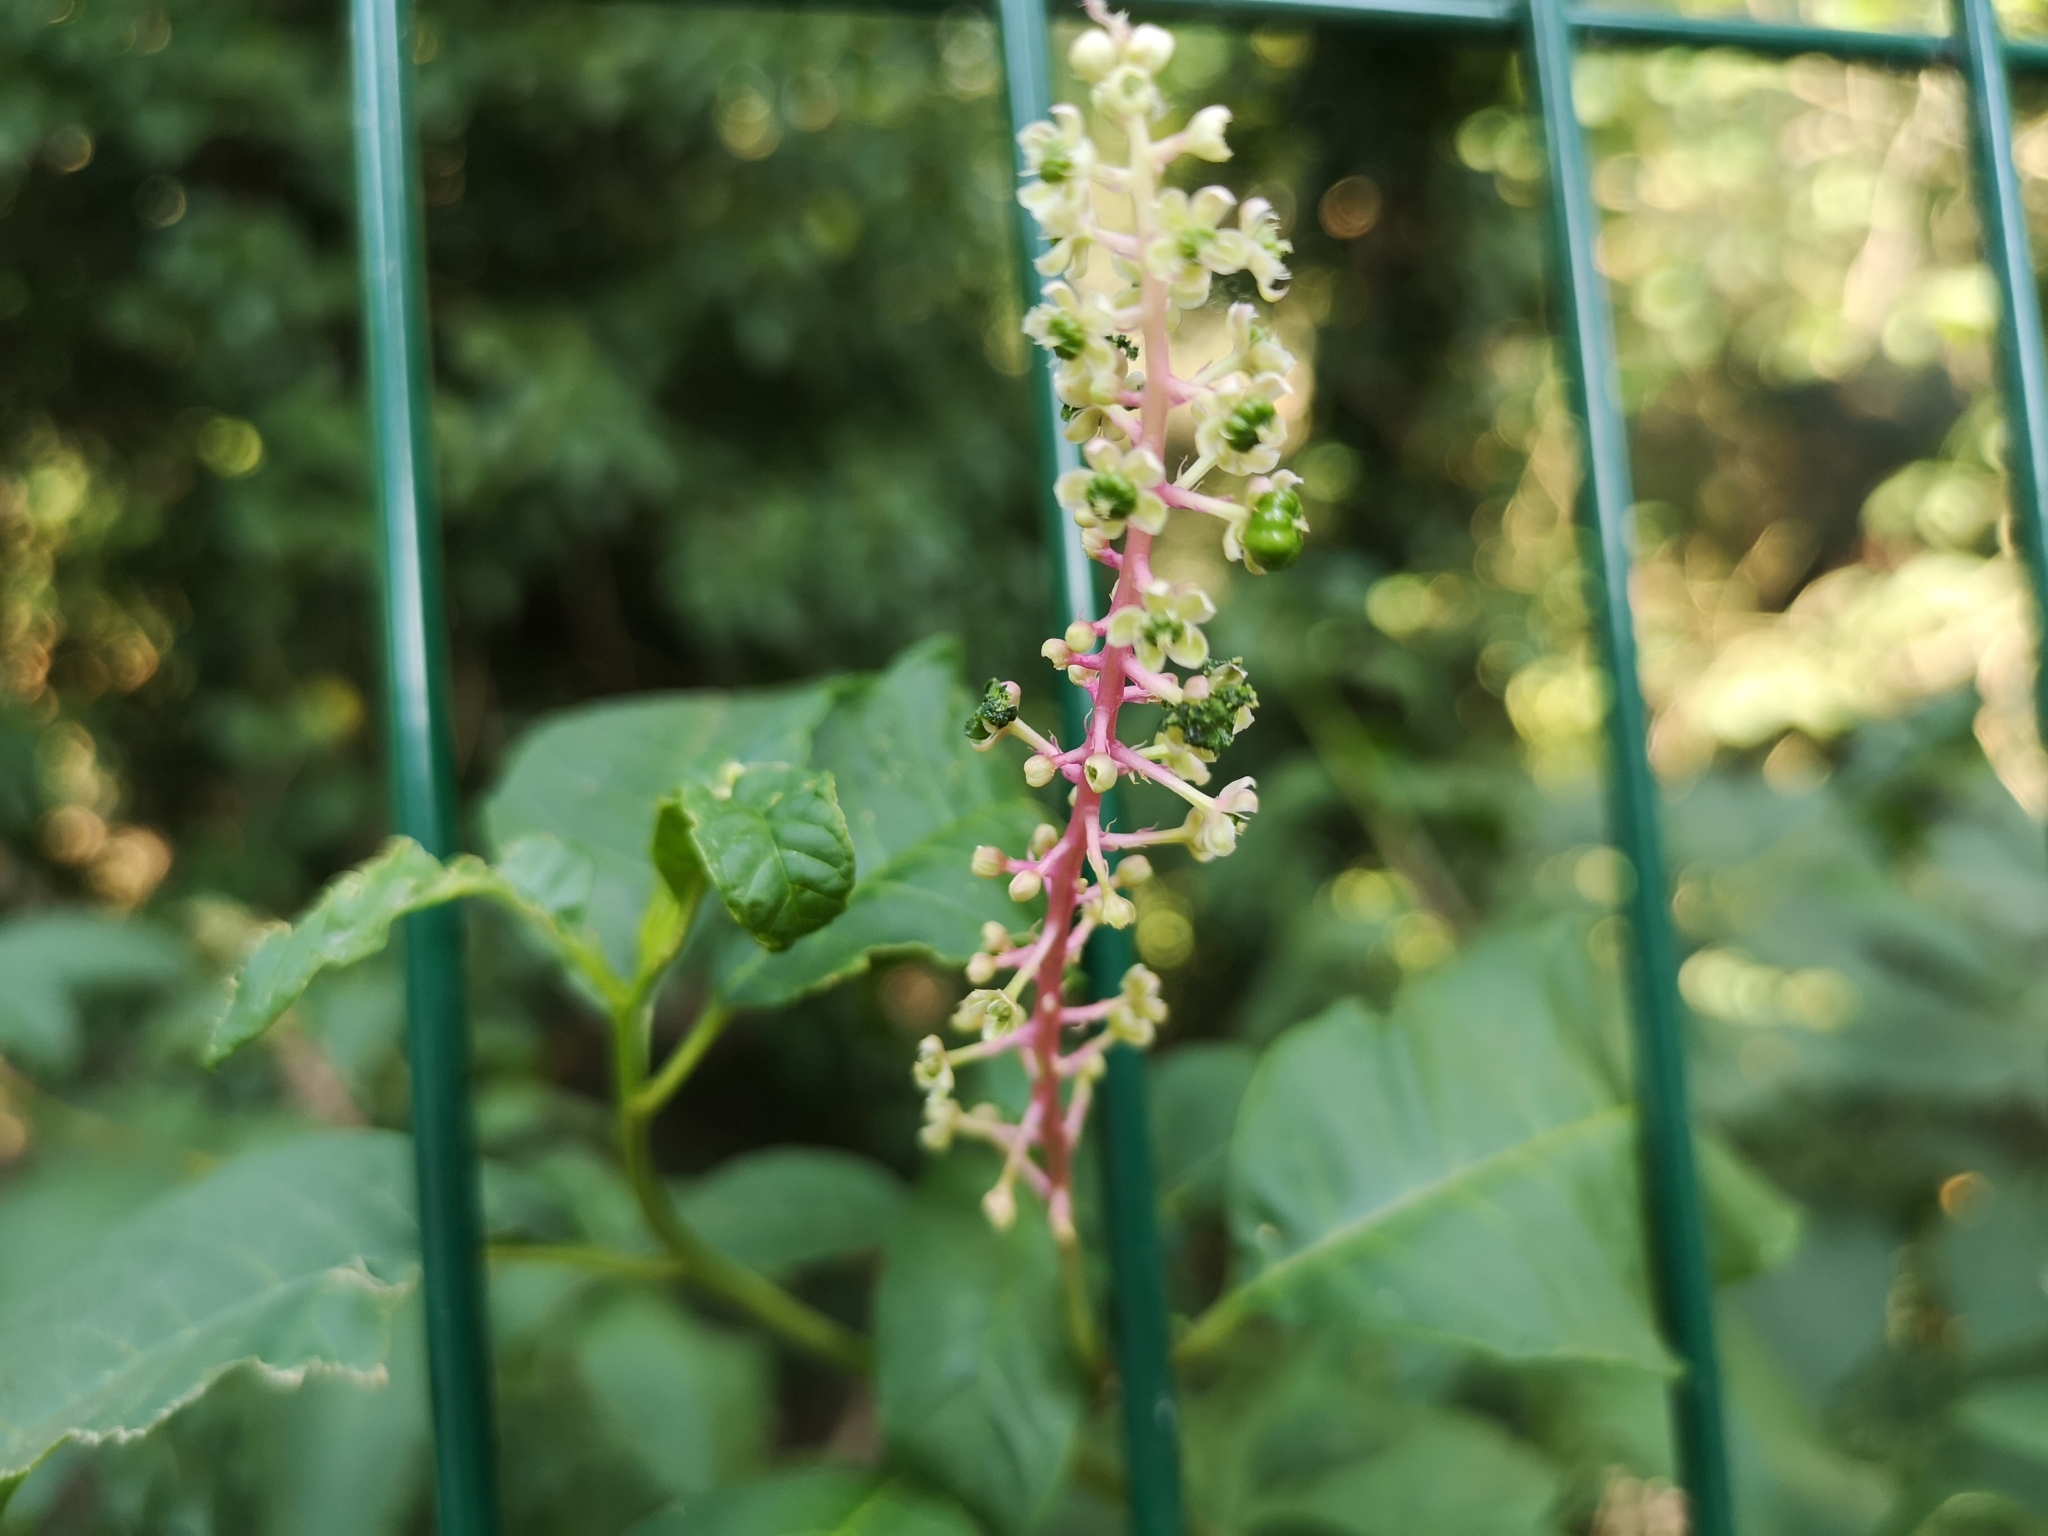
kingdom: Plantae
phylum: Tracheophyta
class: Magnoliopsida
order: Caryophyllales
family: Phytolaccaceae
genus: Phytolacca
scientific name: Phytolacca americana
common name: American pokeweed
